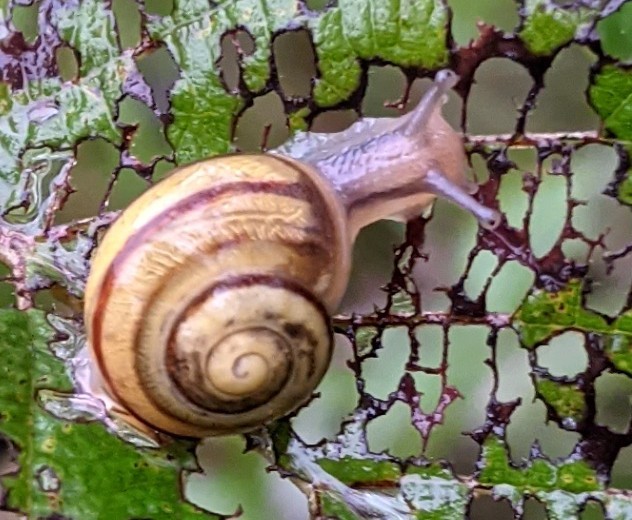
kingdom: Animalia
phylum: Mollusca
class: Gastropoda
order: Stylommatophora
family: Helicidae
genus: Cepaea
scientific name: Cepaea
